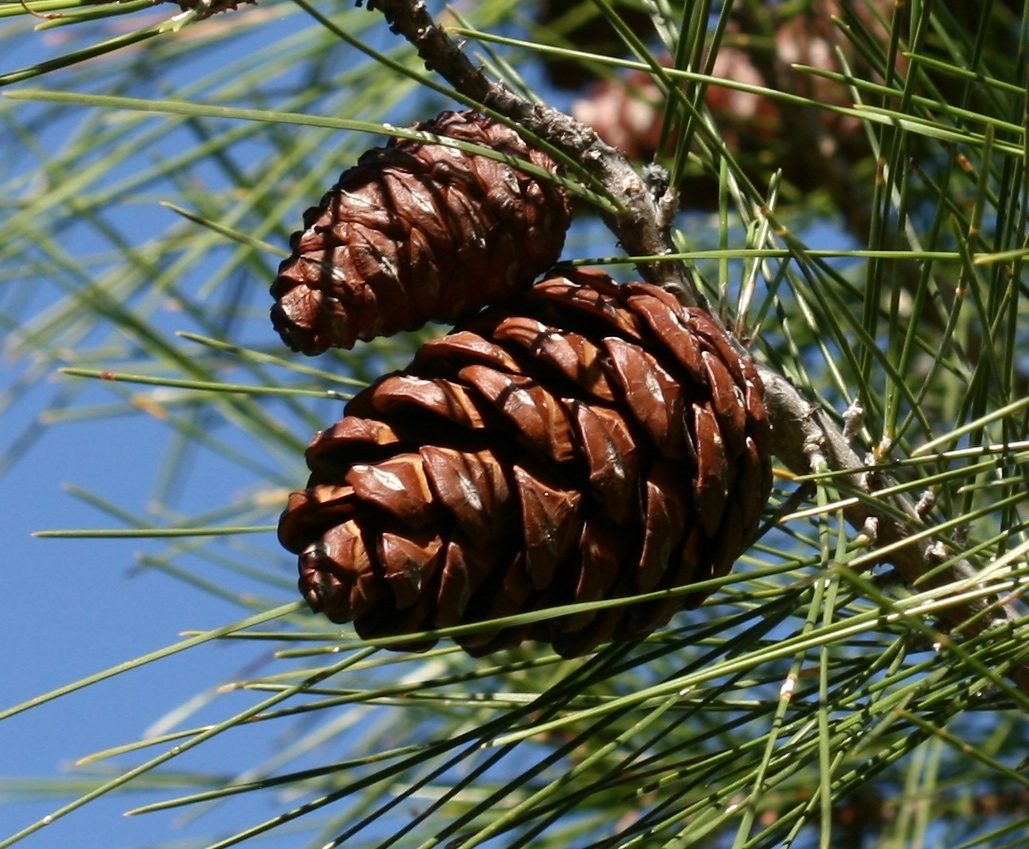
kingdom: Plantae
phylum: Tracheophyta
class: Pinopsida
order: Pinales
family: Pinaceae
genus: Pinus
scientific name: Pinus brutia
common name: Turkish pine
